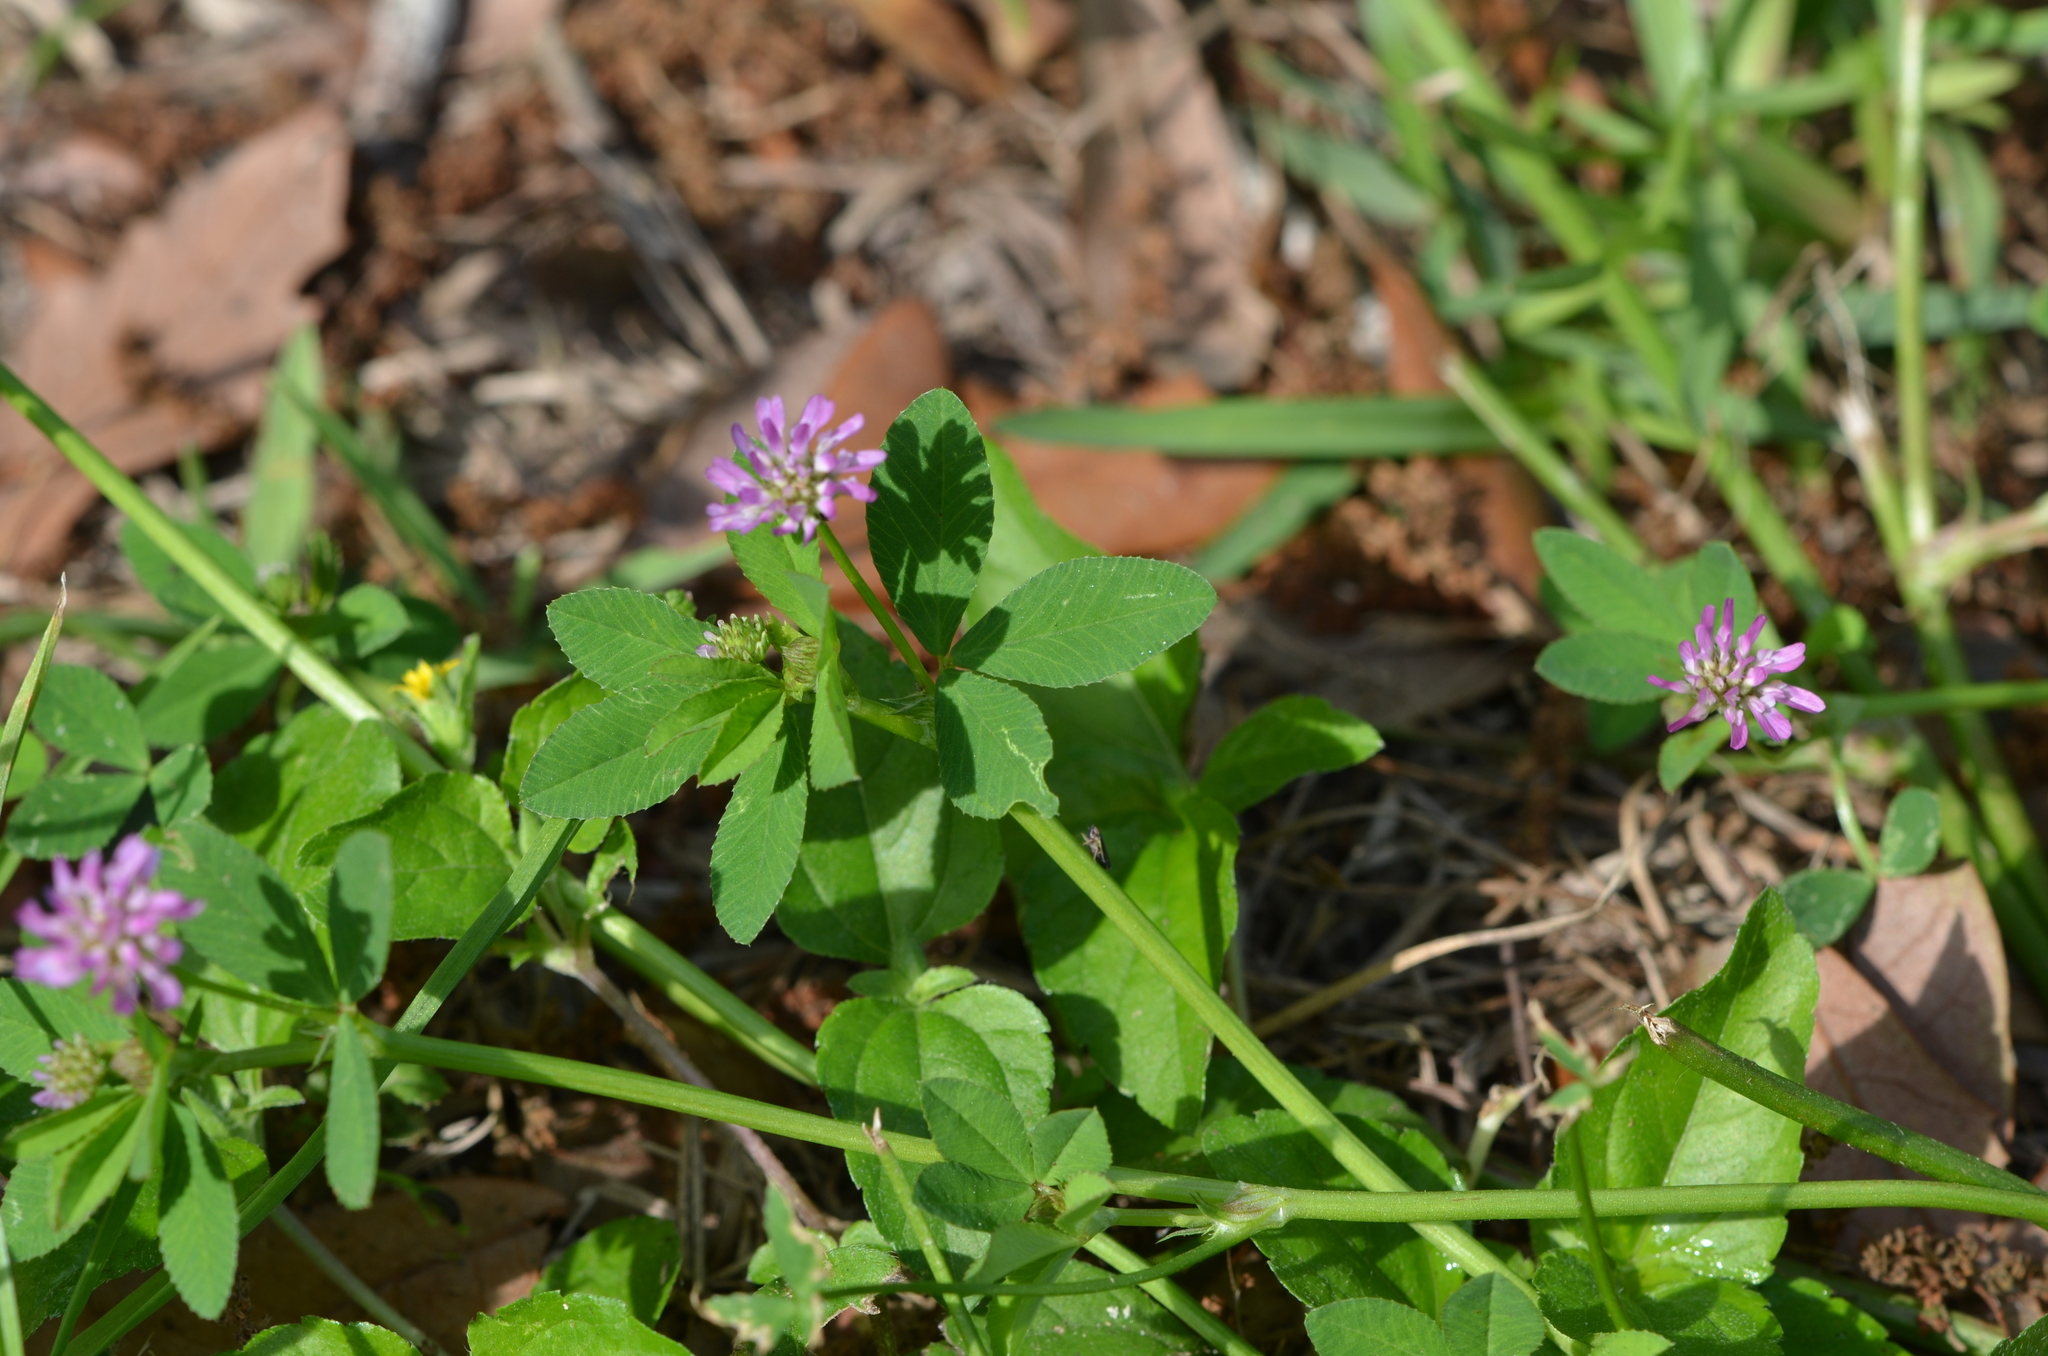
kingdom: Plantae
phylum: Tracheophyta
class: Magnoliopsida
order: Fabales
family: Fabaceae
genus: Trifolium
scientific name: Trifolium resupinatum
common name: Reversed clover
